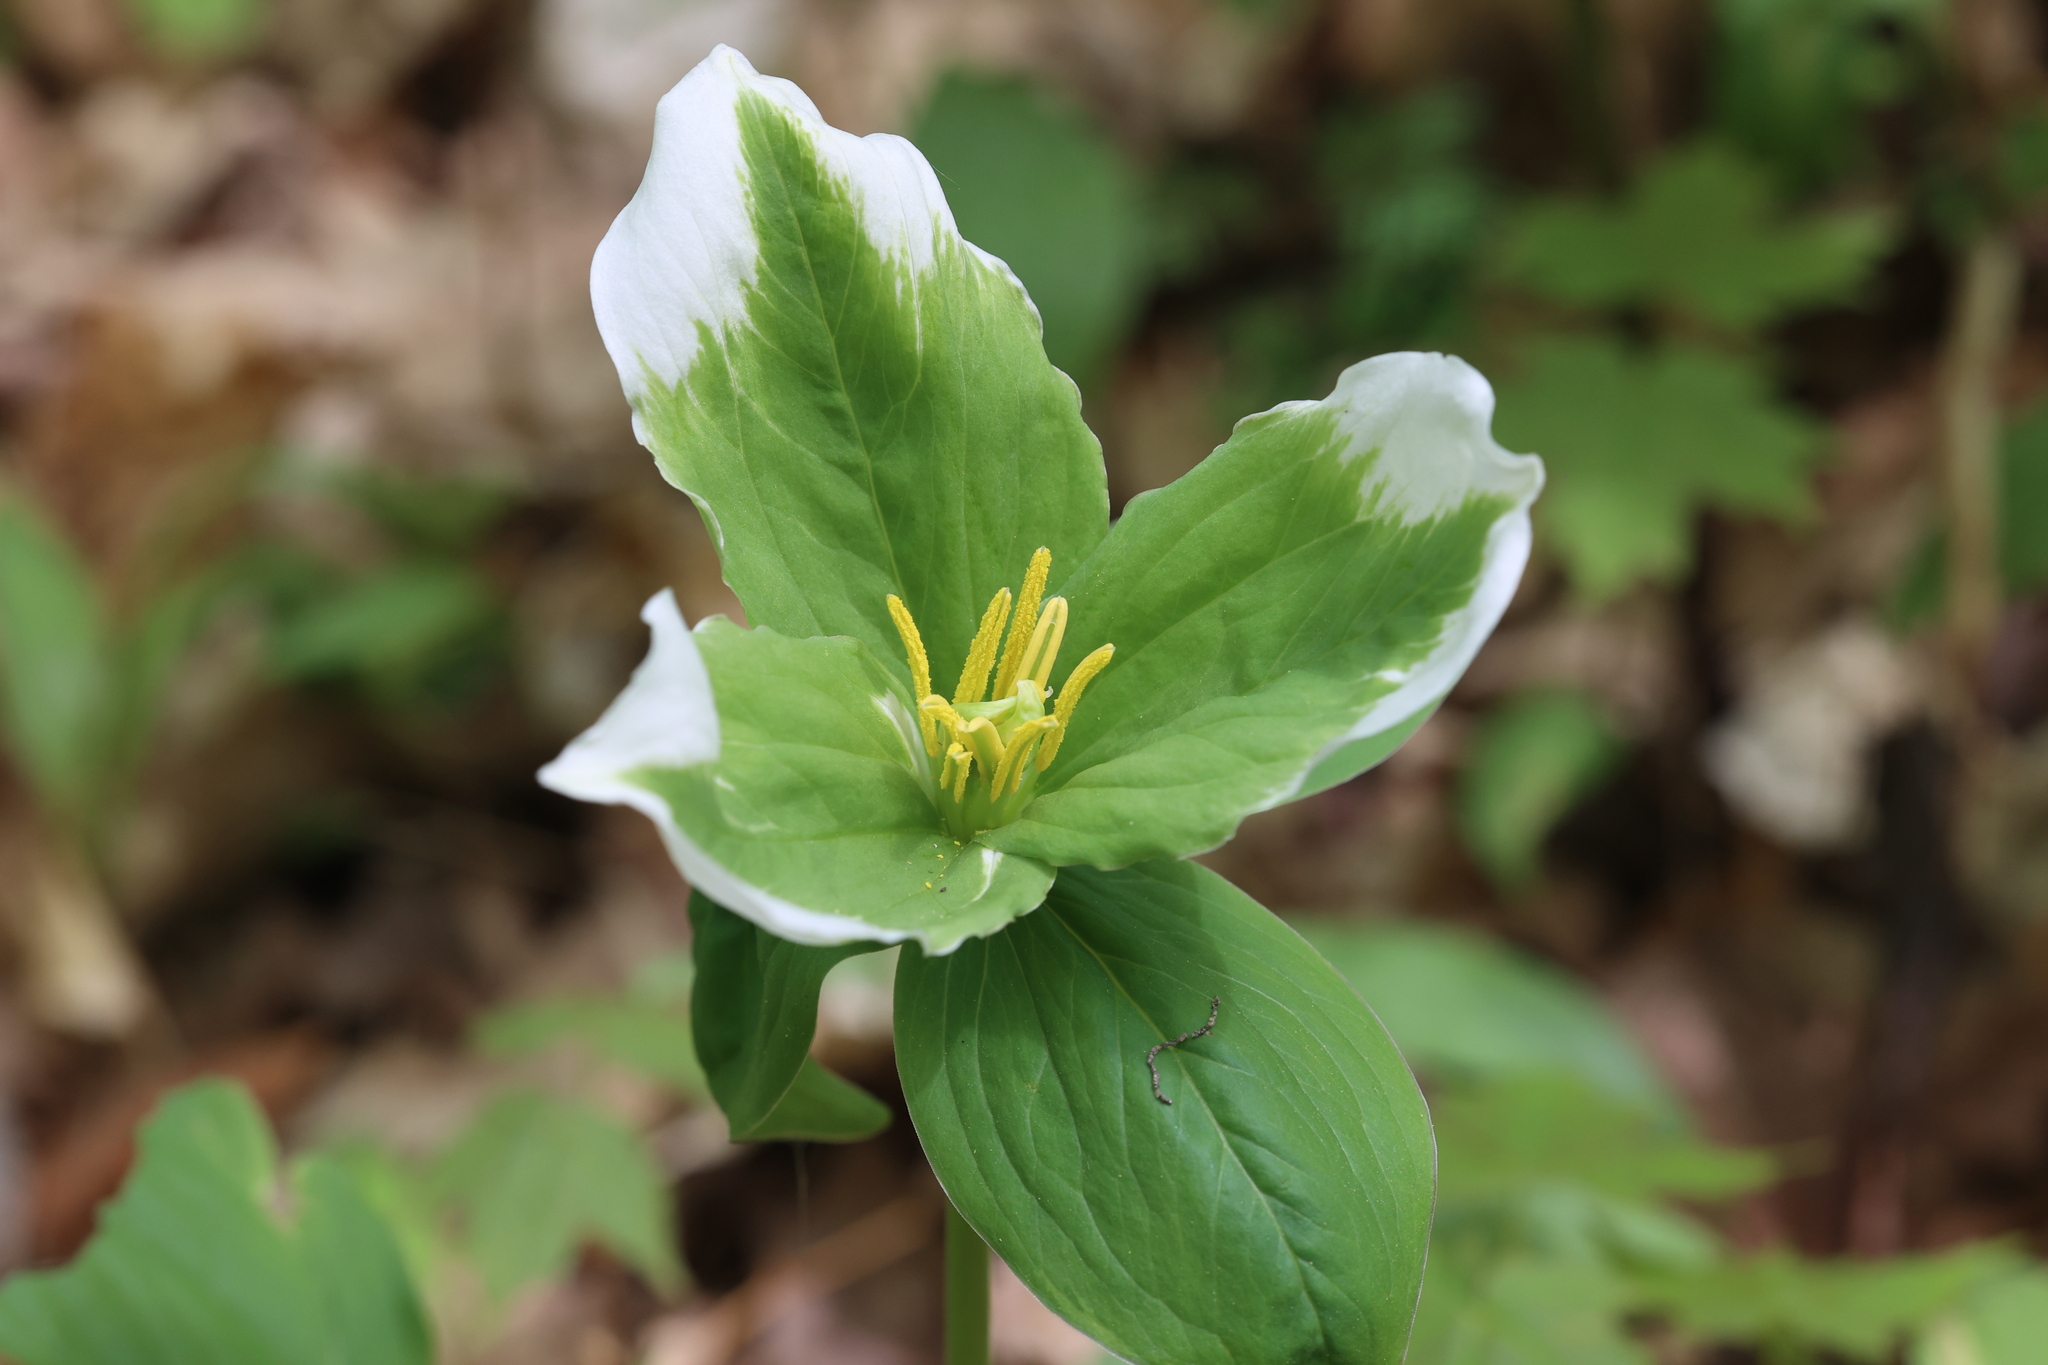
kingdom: Plantae
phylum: Tracheophyta
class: Liliopsida
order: Liliales
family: Melanthiaceae
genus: Trillium
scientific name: Trillium grandiflorum
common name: Great white trillium
